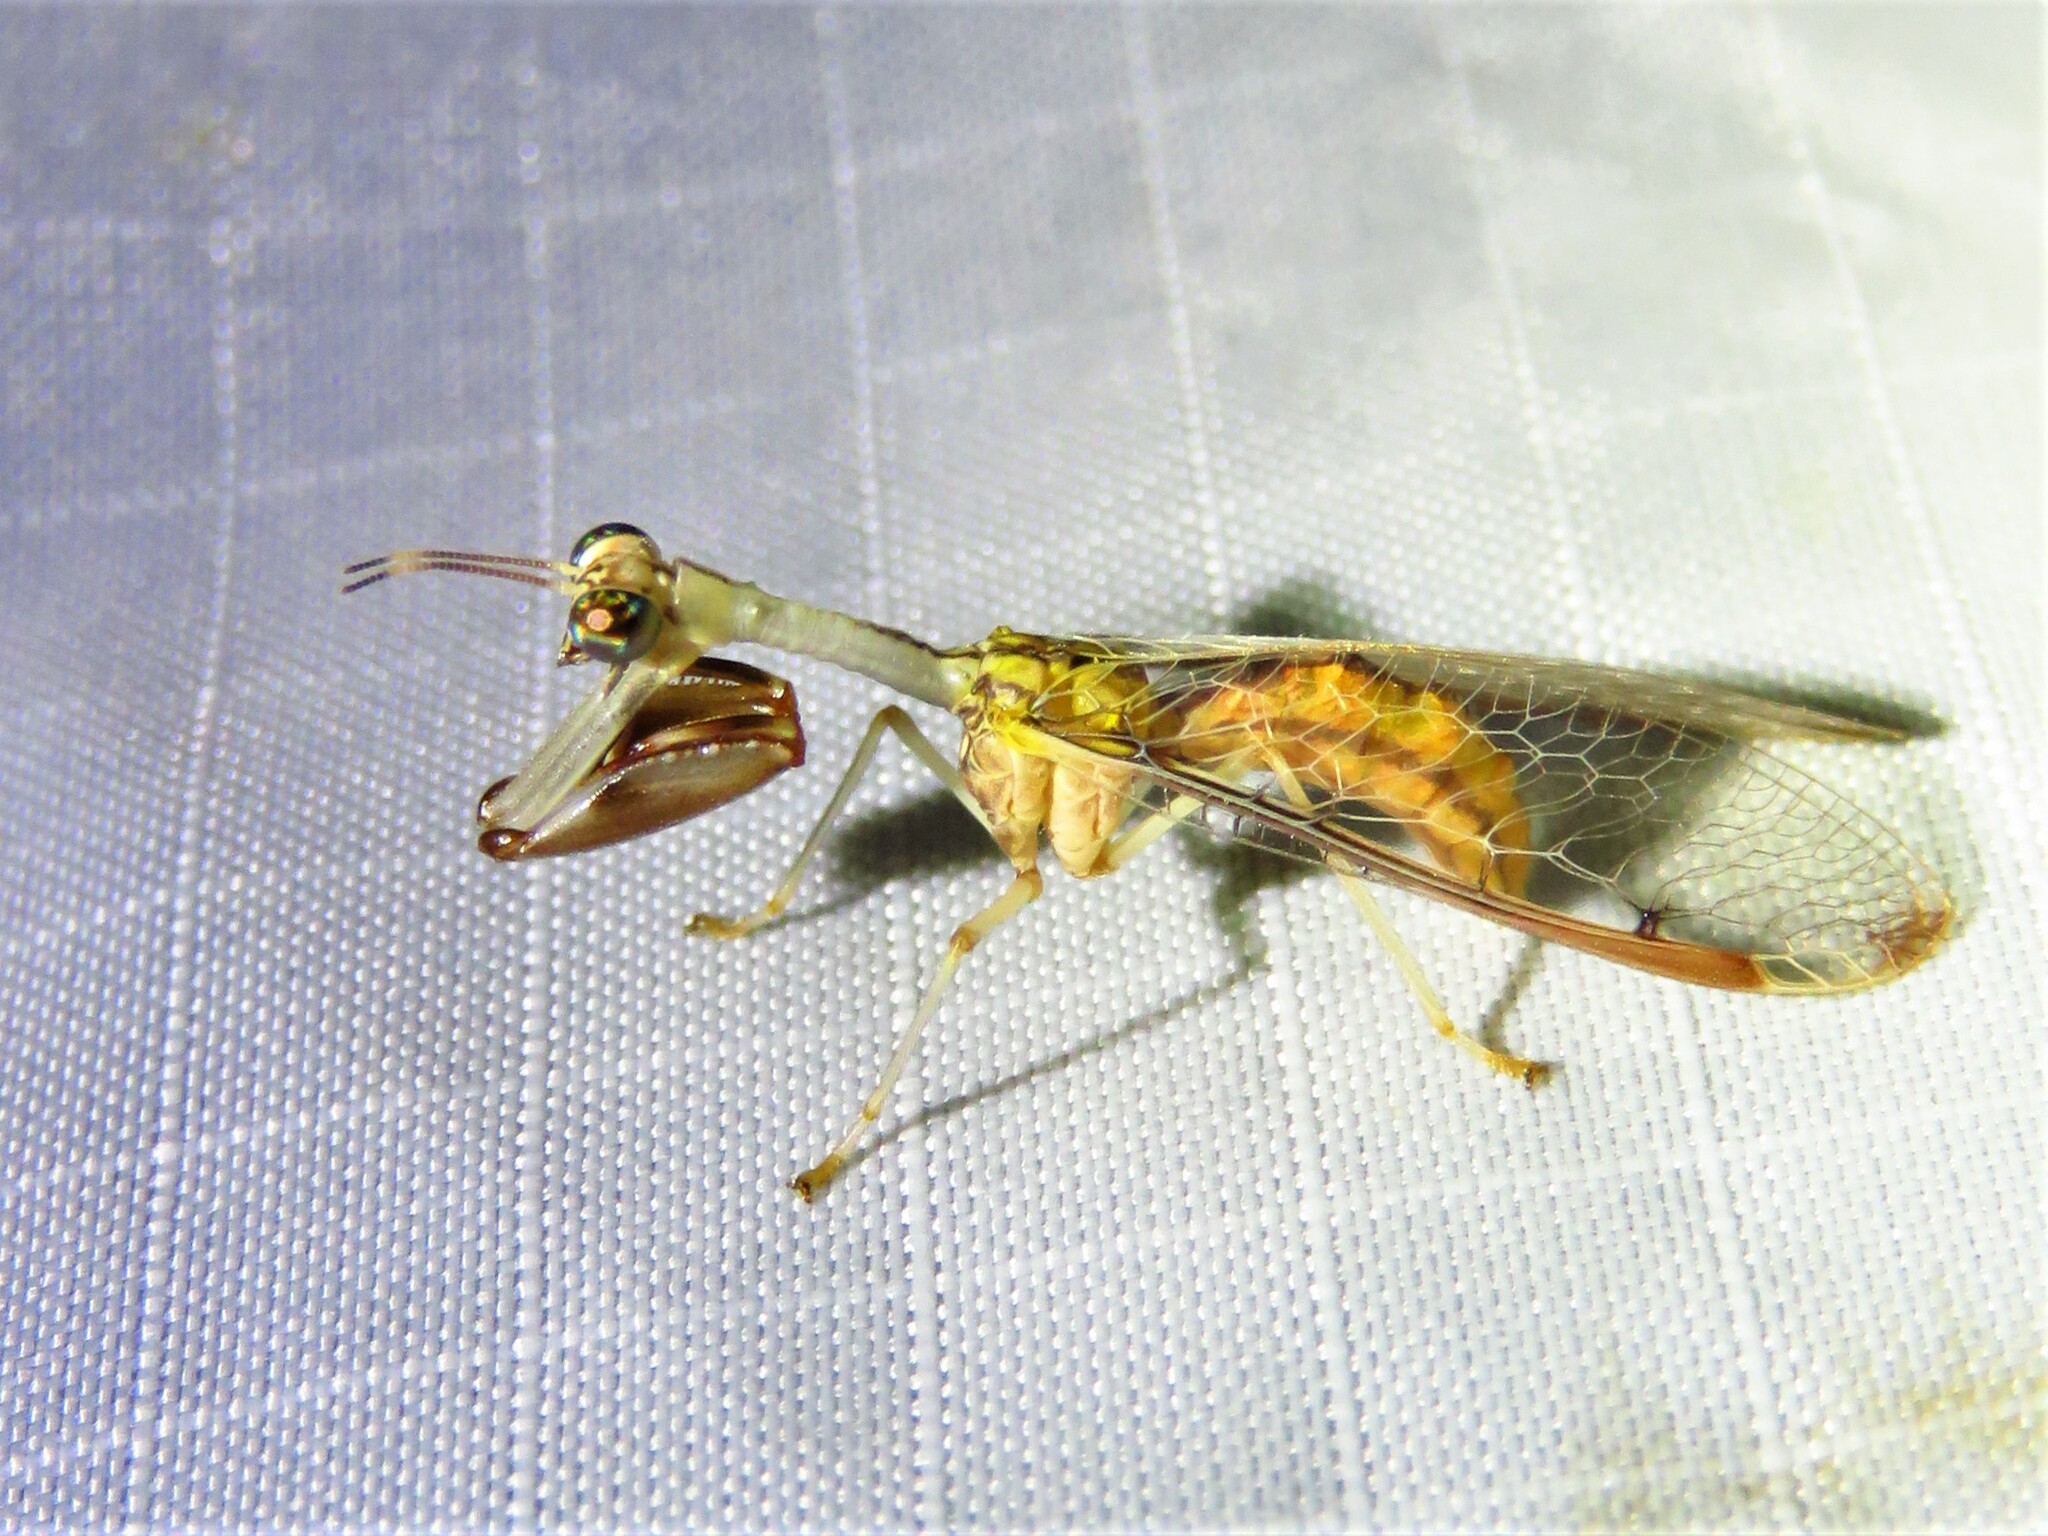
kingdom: Animalia
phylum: Arthropoda
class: Insecta
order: Neuroptera
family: Mantispidae
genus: Dicromantispa
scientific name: Dicromantispa interrupta
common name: Four-spotted mantidfly
